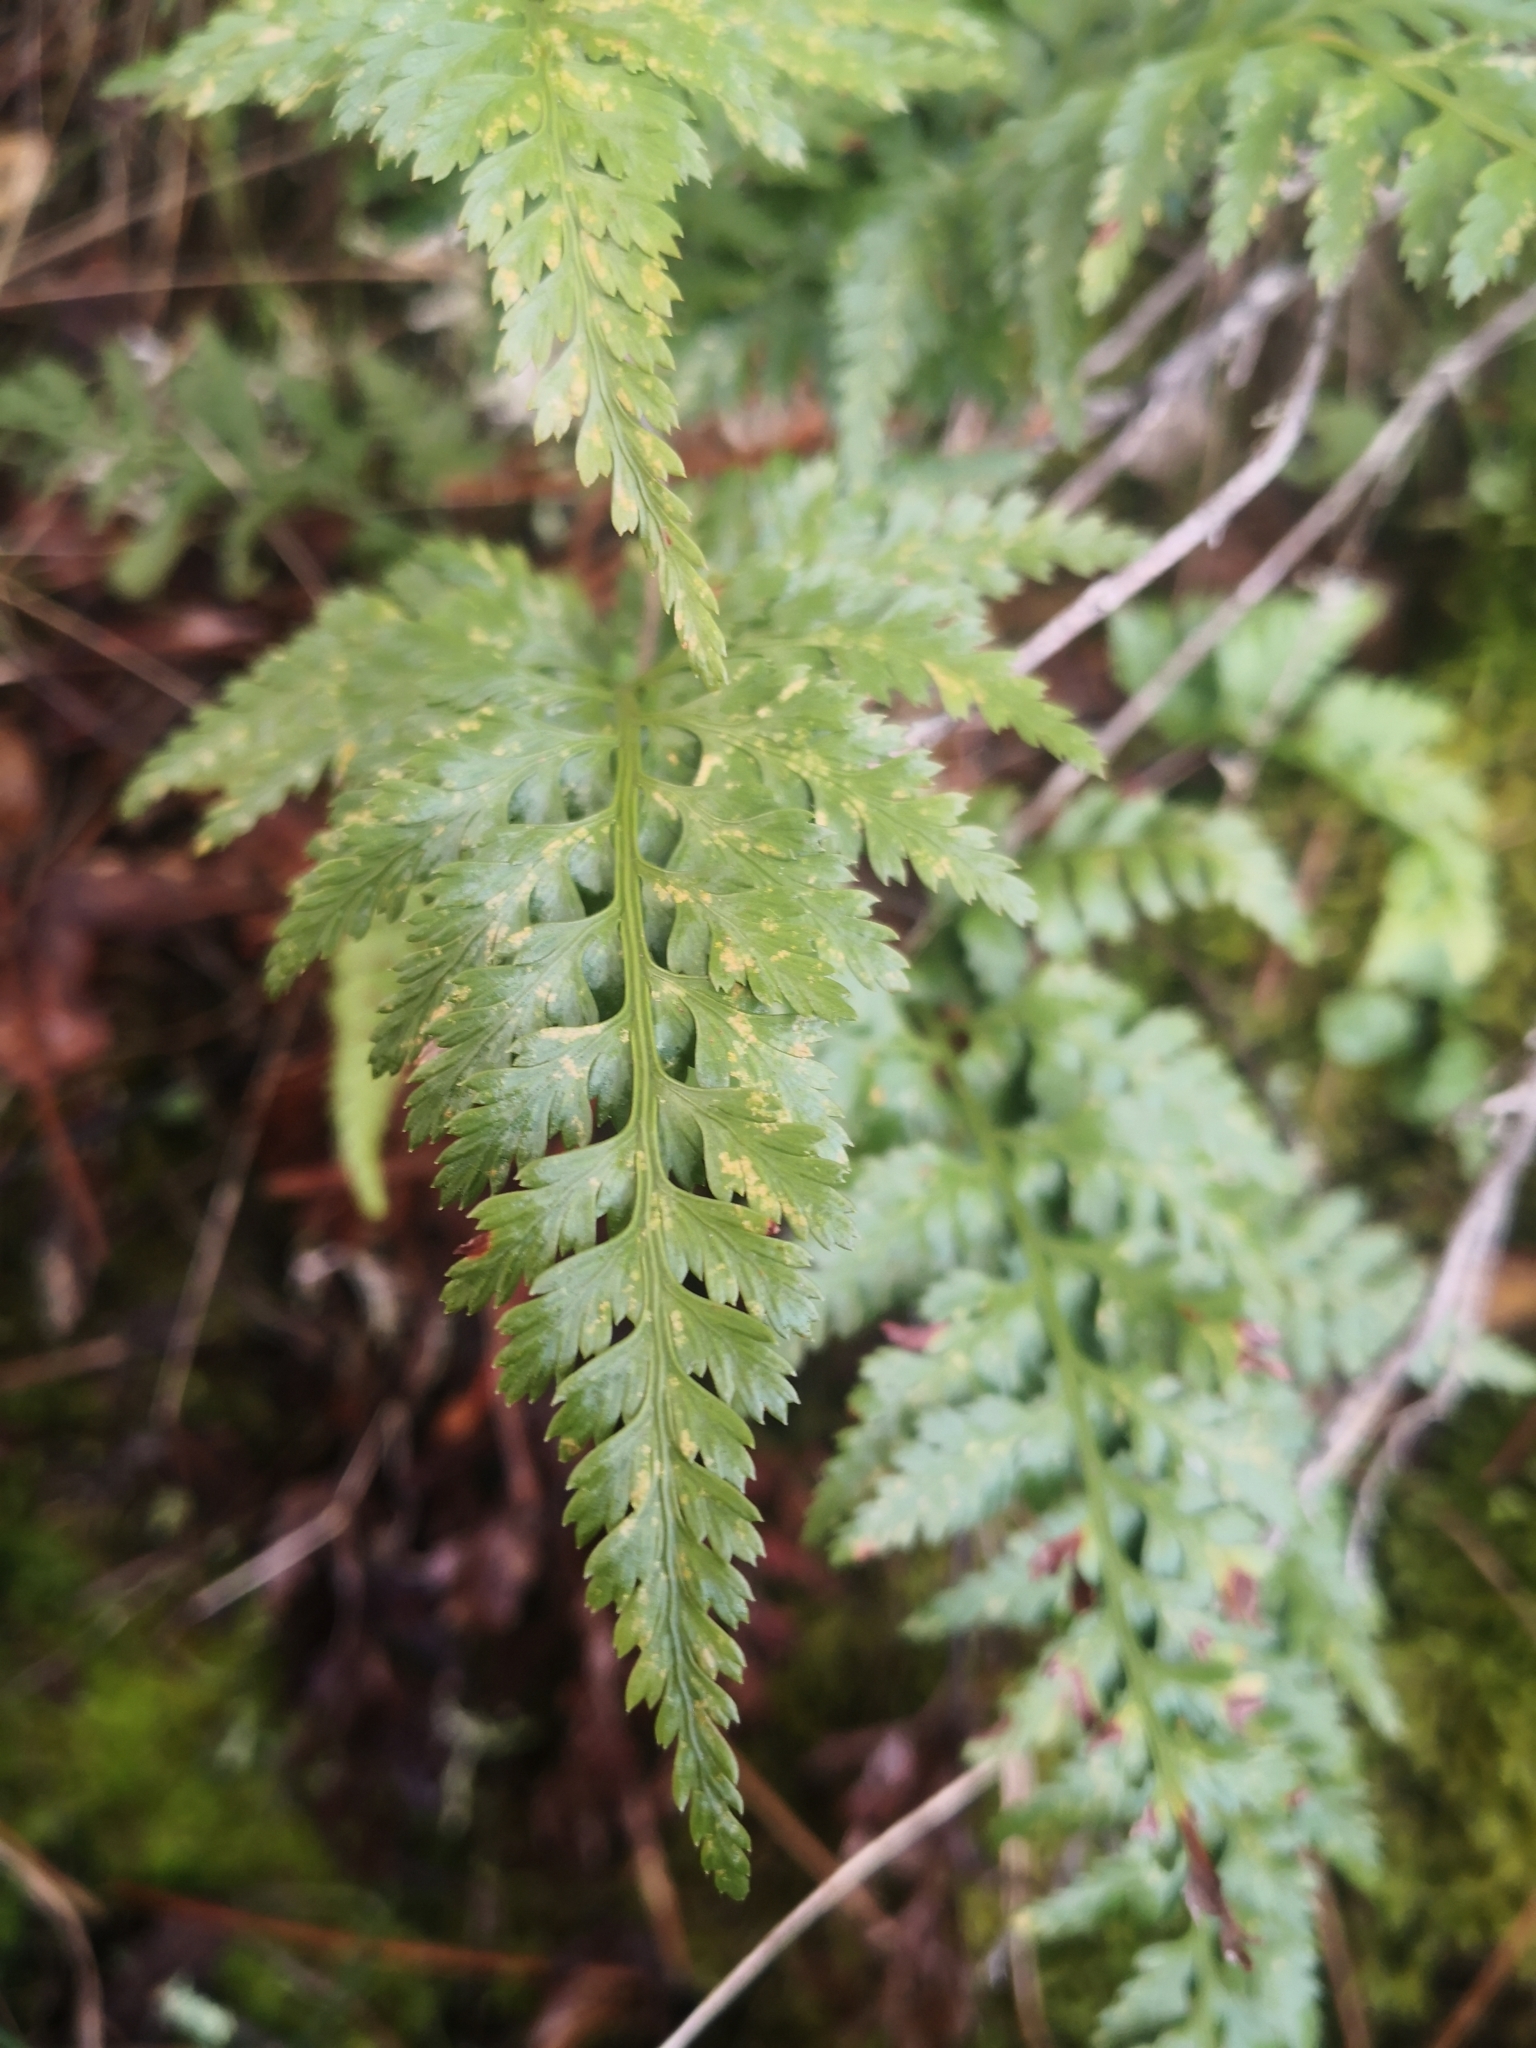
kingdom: Plantae
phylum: Tracheophyta
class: Polypodiopsida
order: Polypodiales
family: Aspleniaceae
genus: Asplenium
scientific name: Asplenium onopteris
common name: Irish spleenwort
